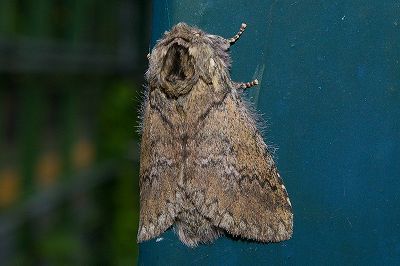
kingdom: Animalia
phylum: Arthropoda
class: Insecta
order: Lepidoptera
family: Notodontidae
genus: Disparia
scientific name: Disparia diluta
